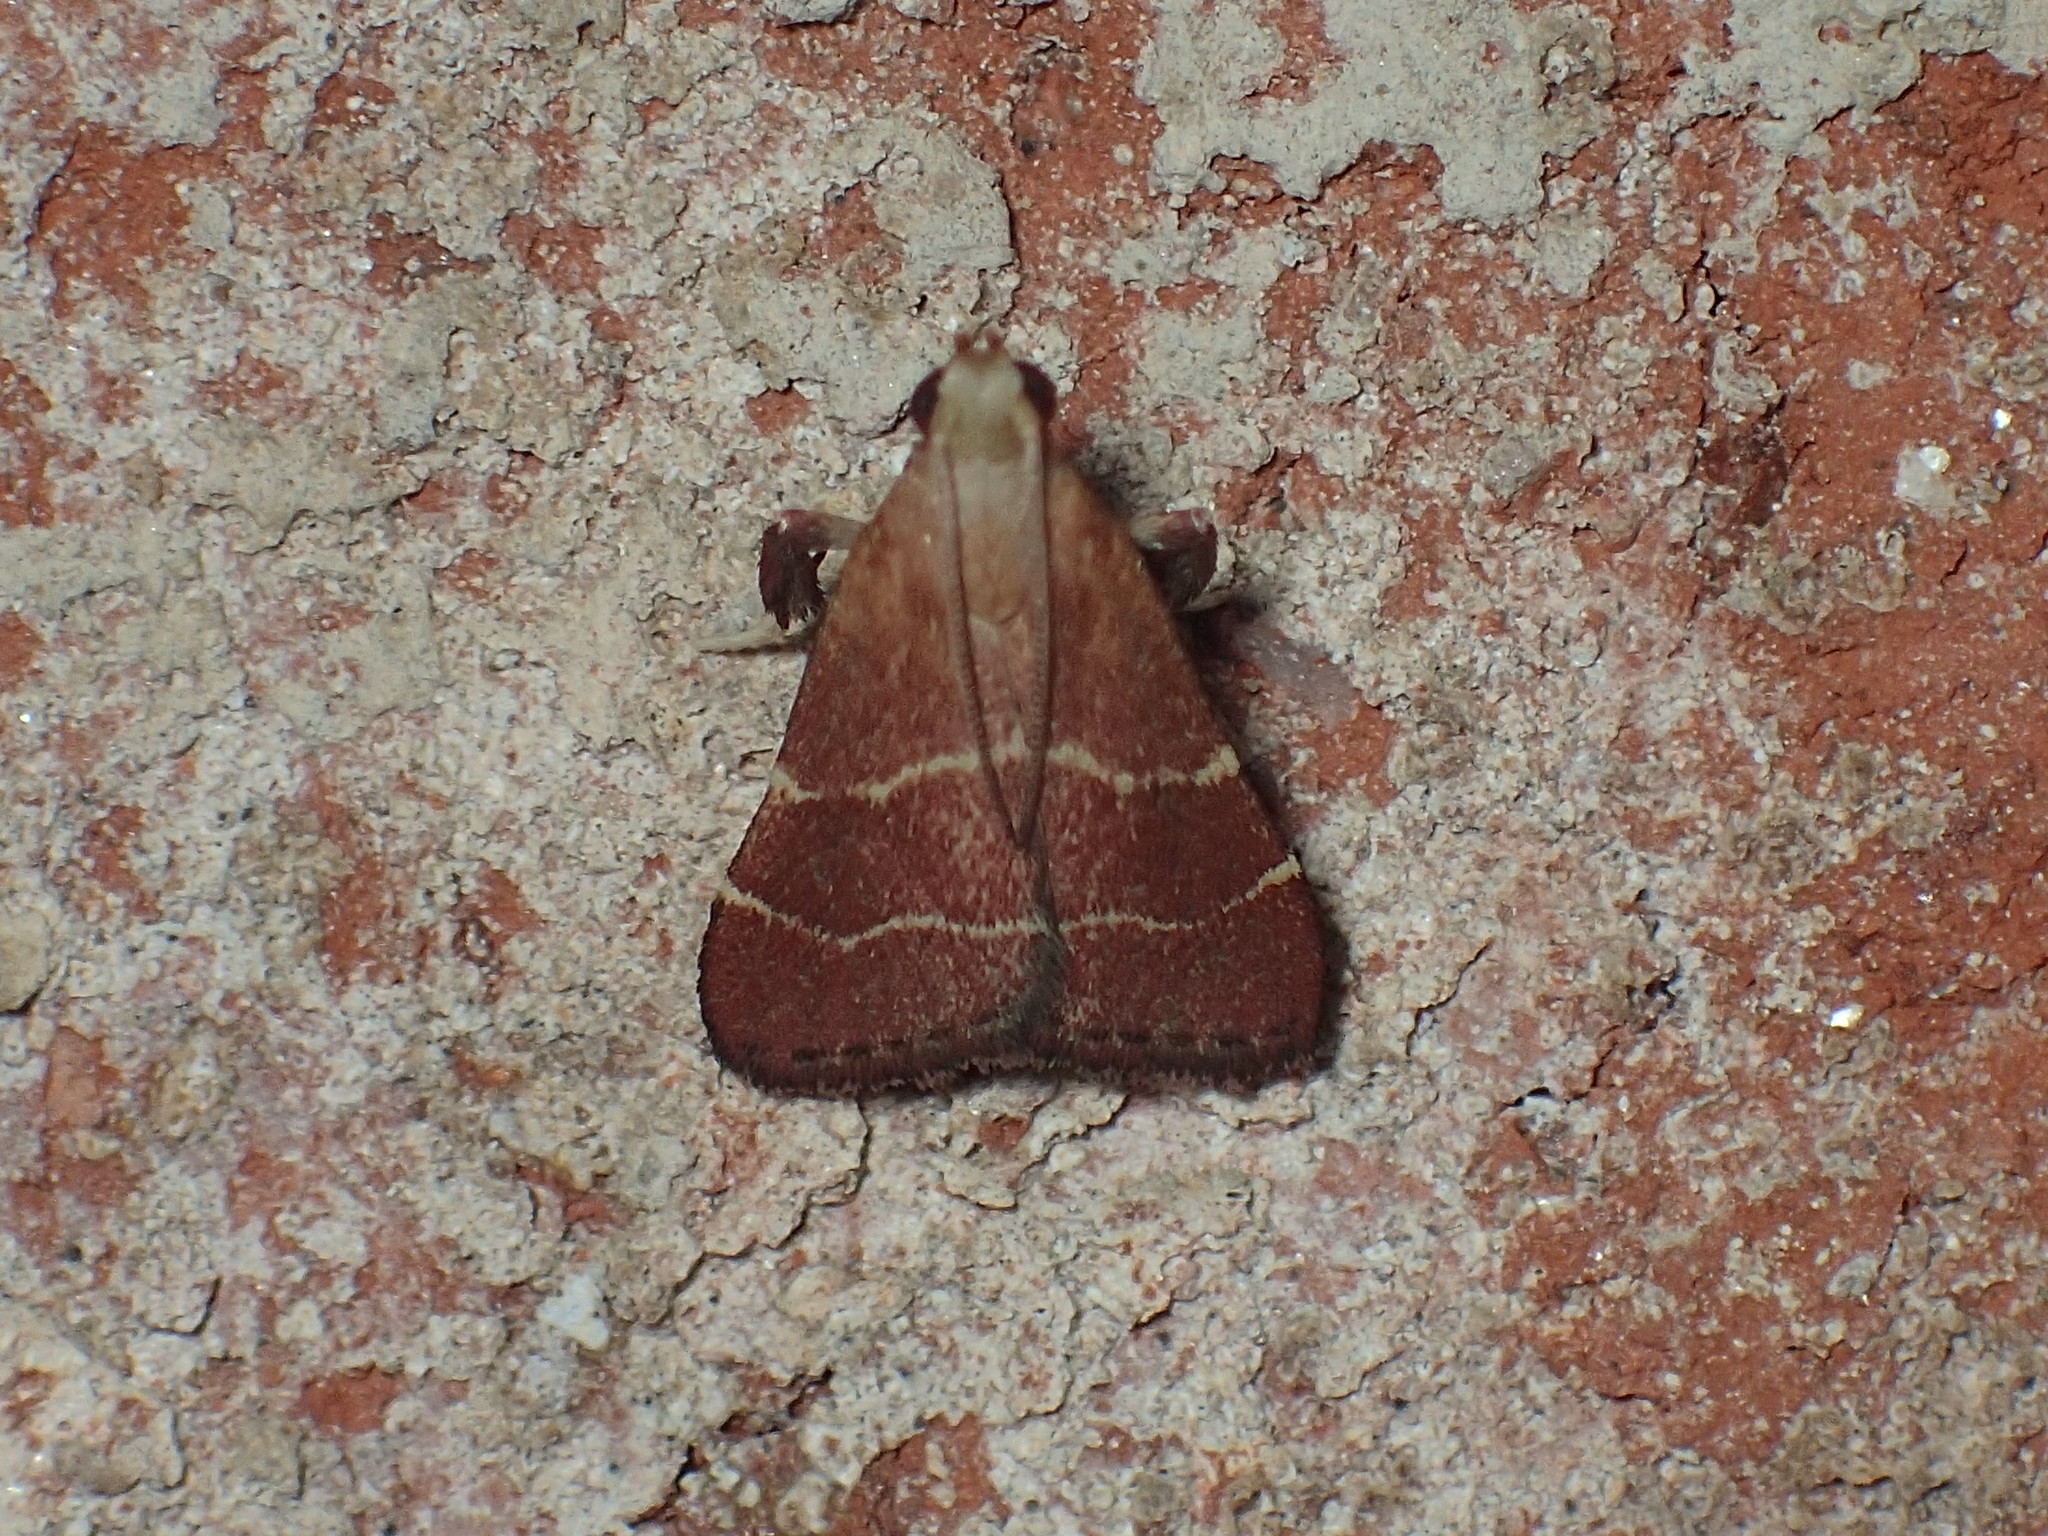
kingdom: Animalia
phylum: Arthropoda
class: Insecta
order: Lepidoptera
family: Pyralidae
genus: Arta
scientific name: Arta statalis
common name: Posturing arta moth
